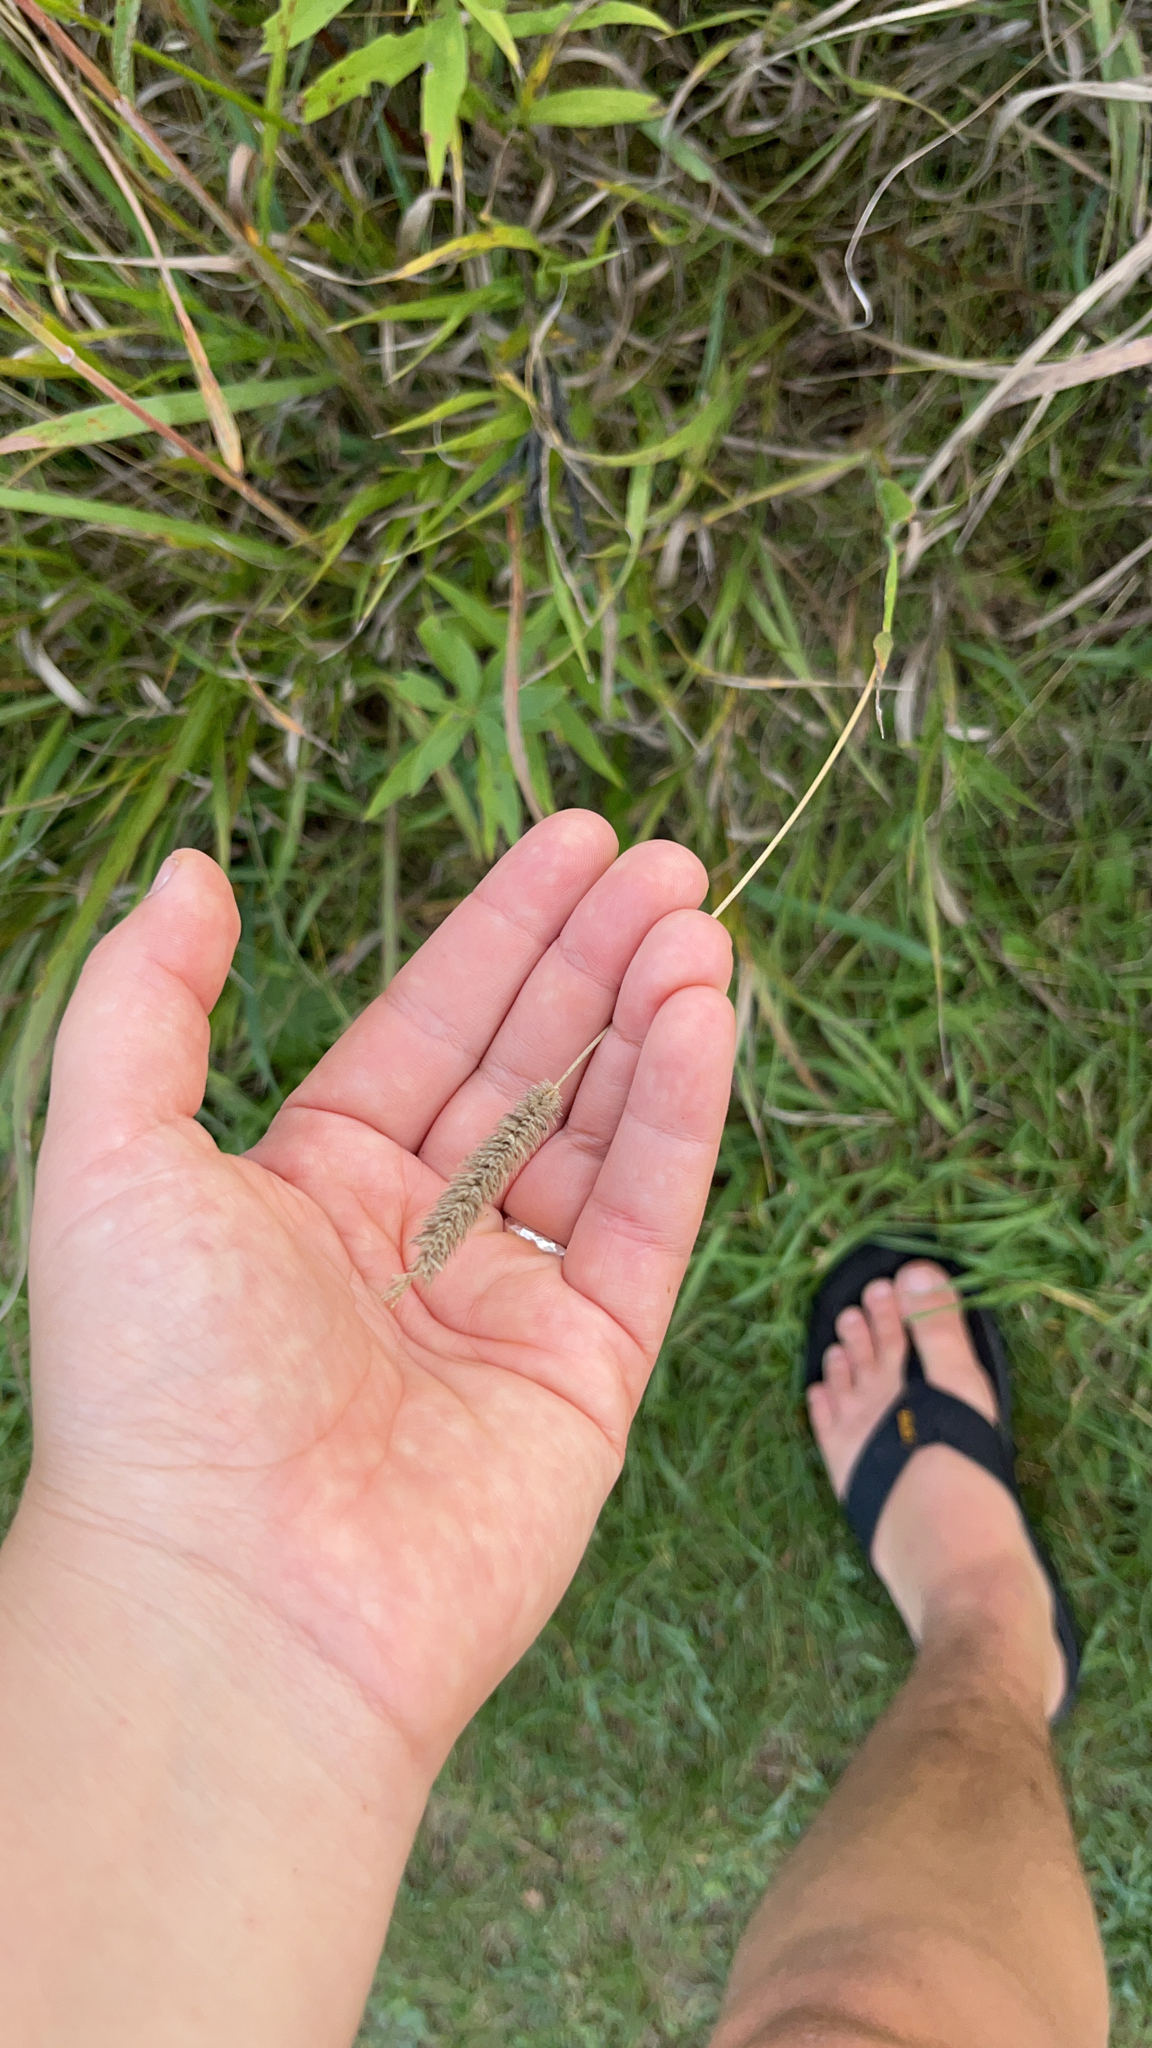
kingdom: Plantae
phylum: Tracheophyta
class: Liliopsida
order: Poales
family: Poaceae
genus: Phleum
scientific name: Phleum pratense
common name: Timothy grass
